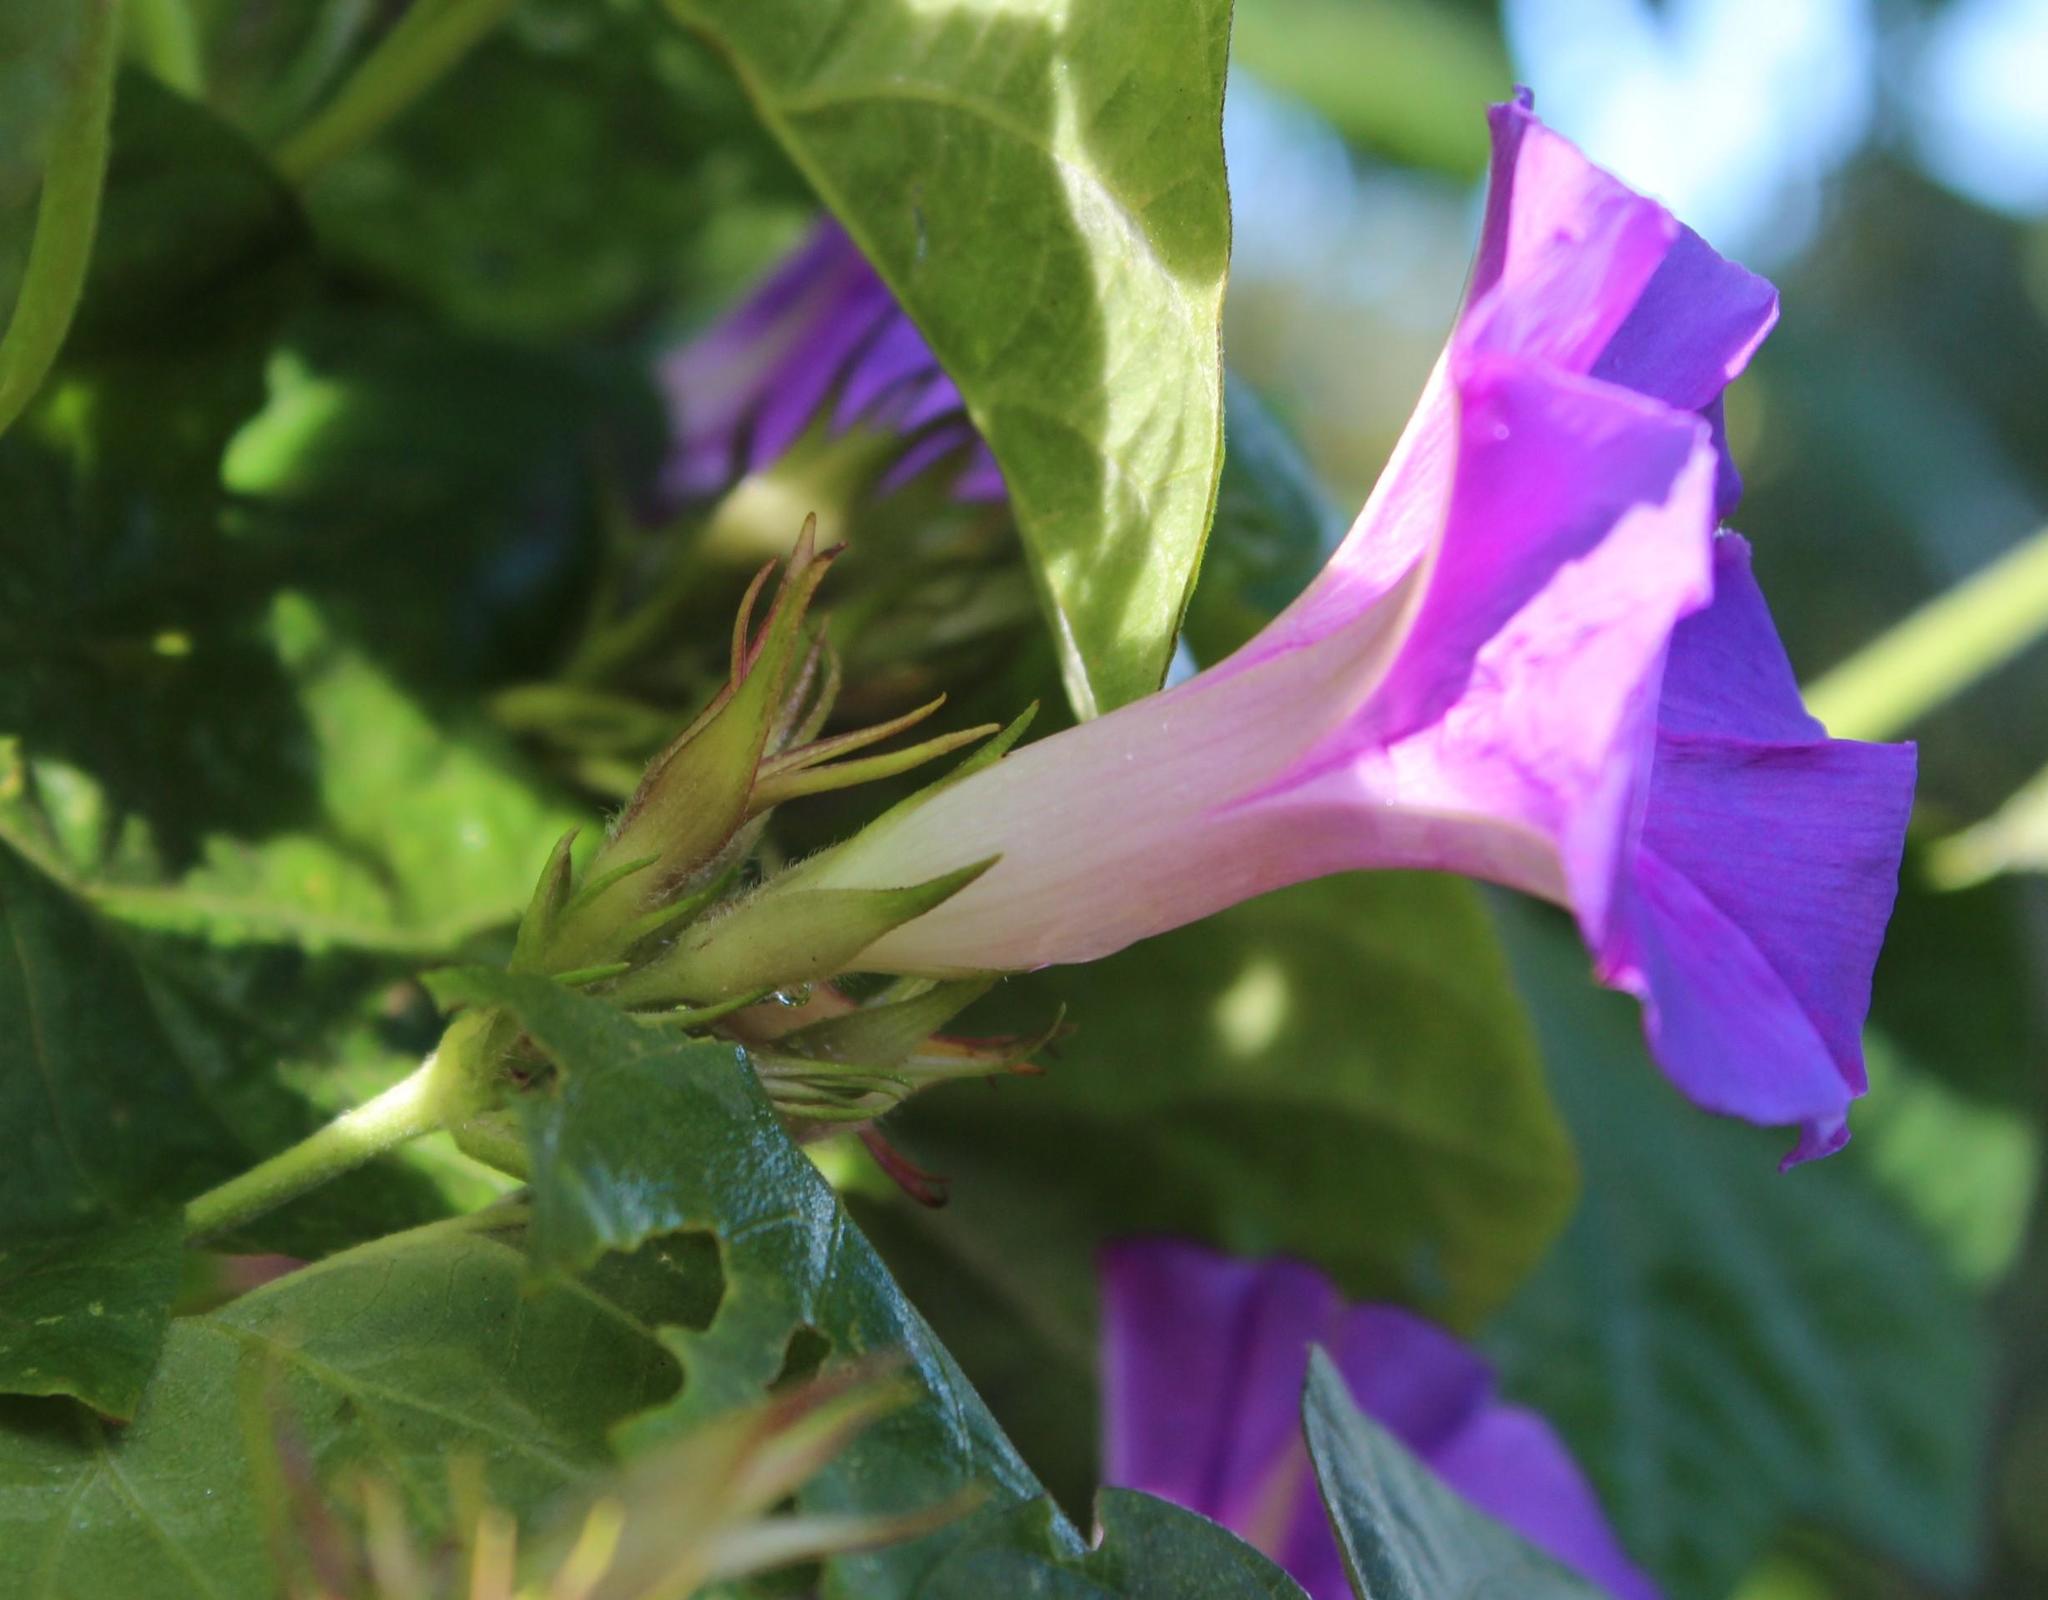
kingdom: Plantae
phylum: Tracheophyta
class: Magnoliopsida
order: Solanales
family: Convolvulaceae
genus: Ipomoea
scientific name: Ipomoea indica
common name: Blue dawnflower
